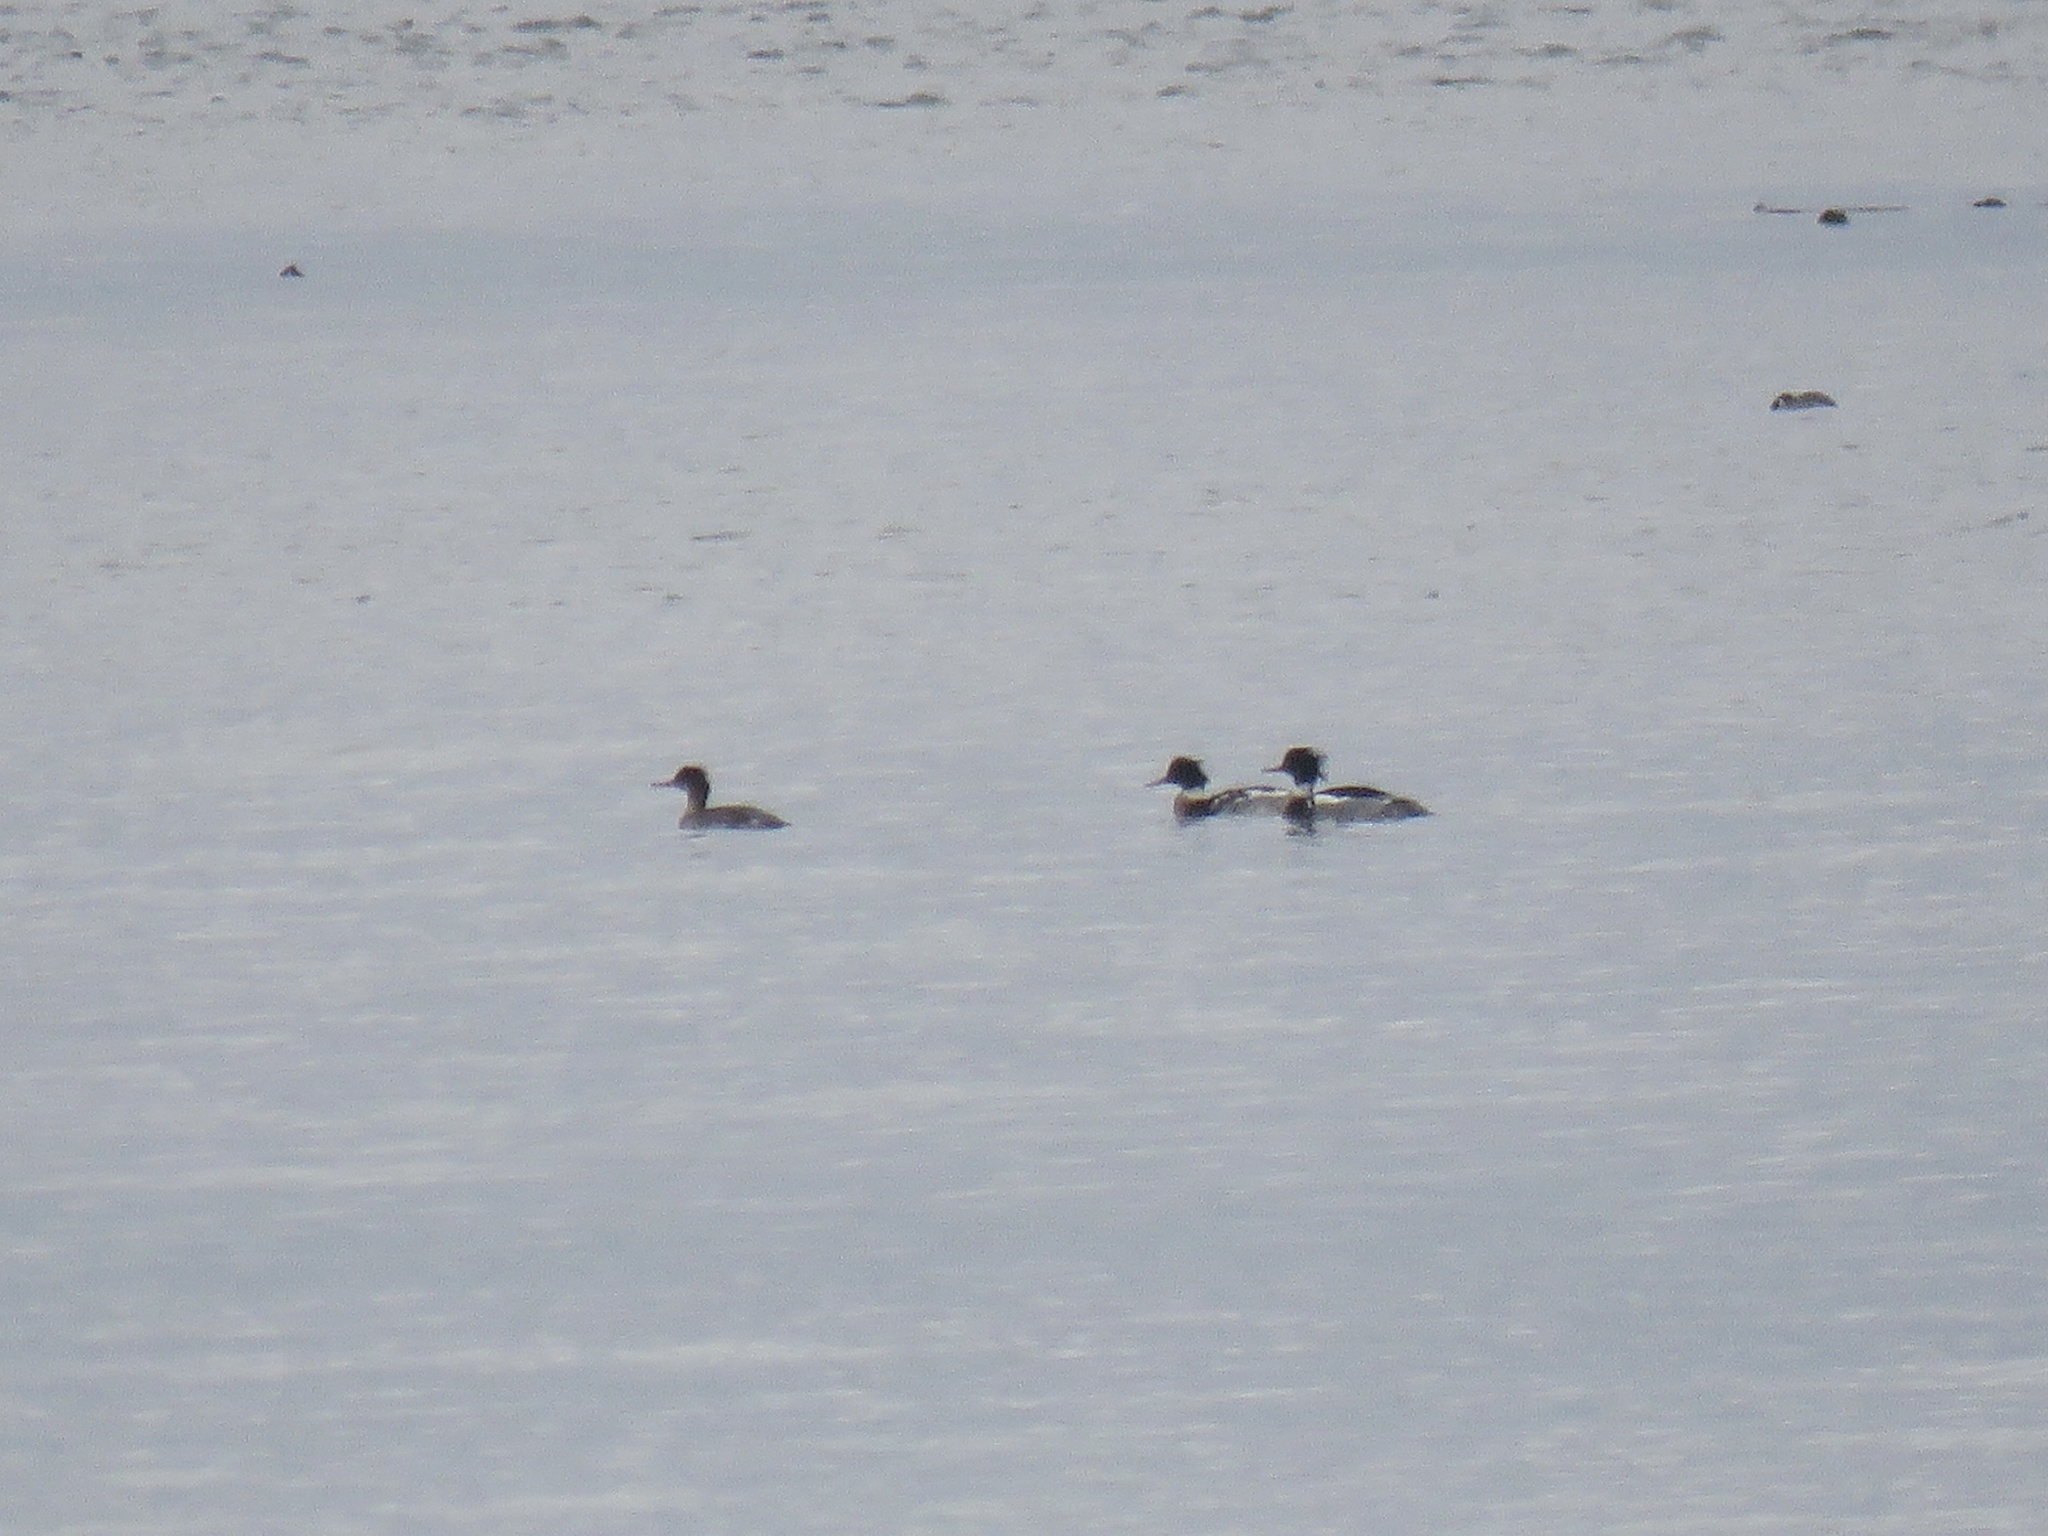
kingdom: Animalia
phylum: Chordata
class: Aves
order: Anseriformes
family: Anatidae
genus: Mergus
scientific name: Mergus serrator
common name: Red-breasted merganser
